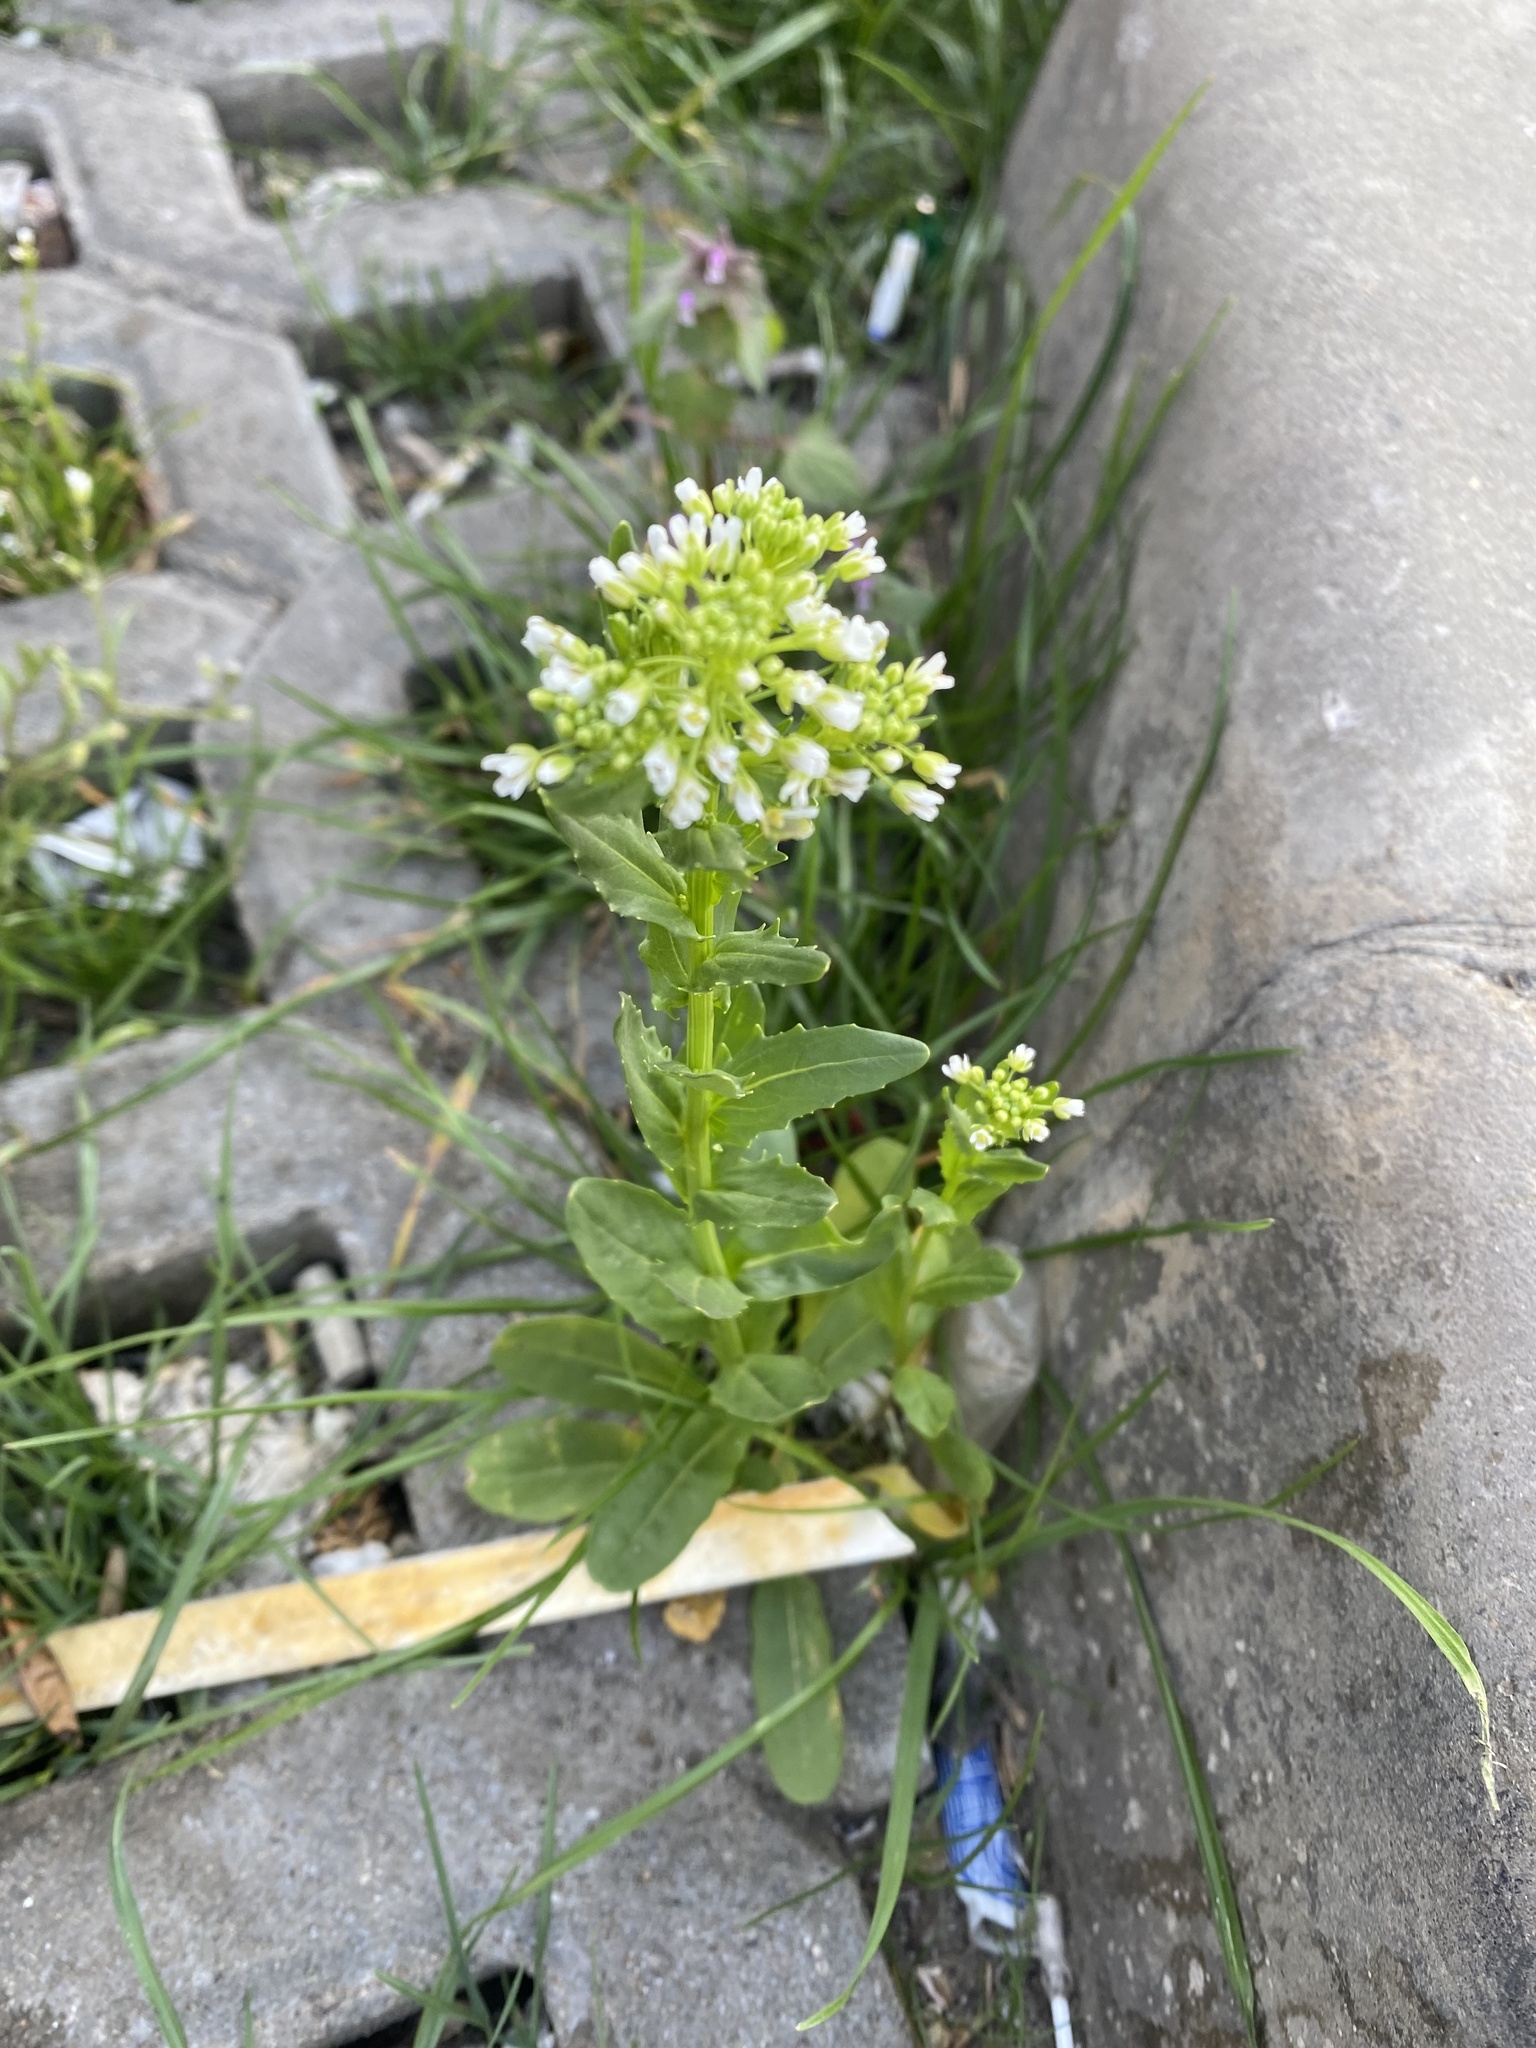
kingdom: Plantae
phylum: Tracheophyta
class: Magnoliopsida
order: Brassicales
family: Brassicaceae
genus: Thlaspi
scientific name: Thlaspi arvense
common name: Field pennycress
